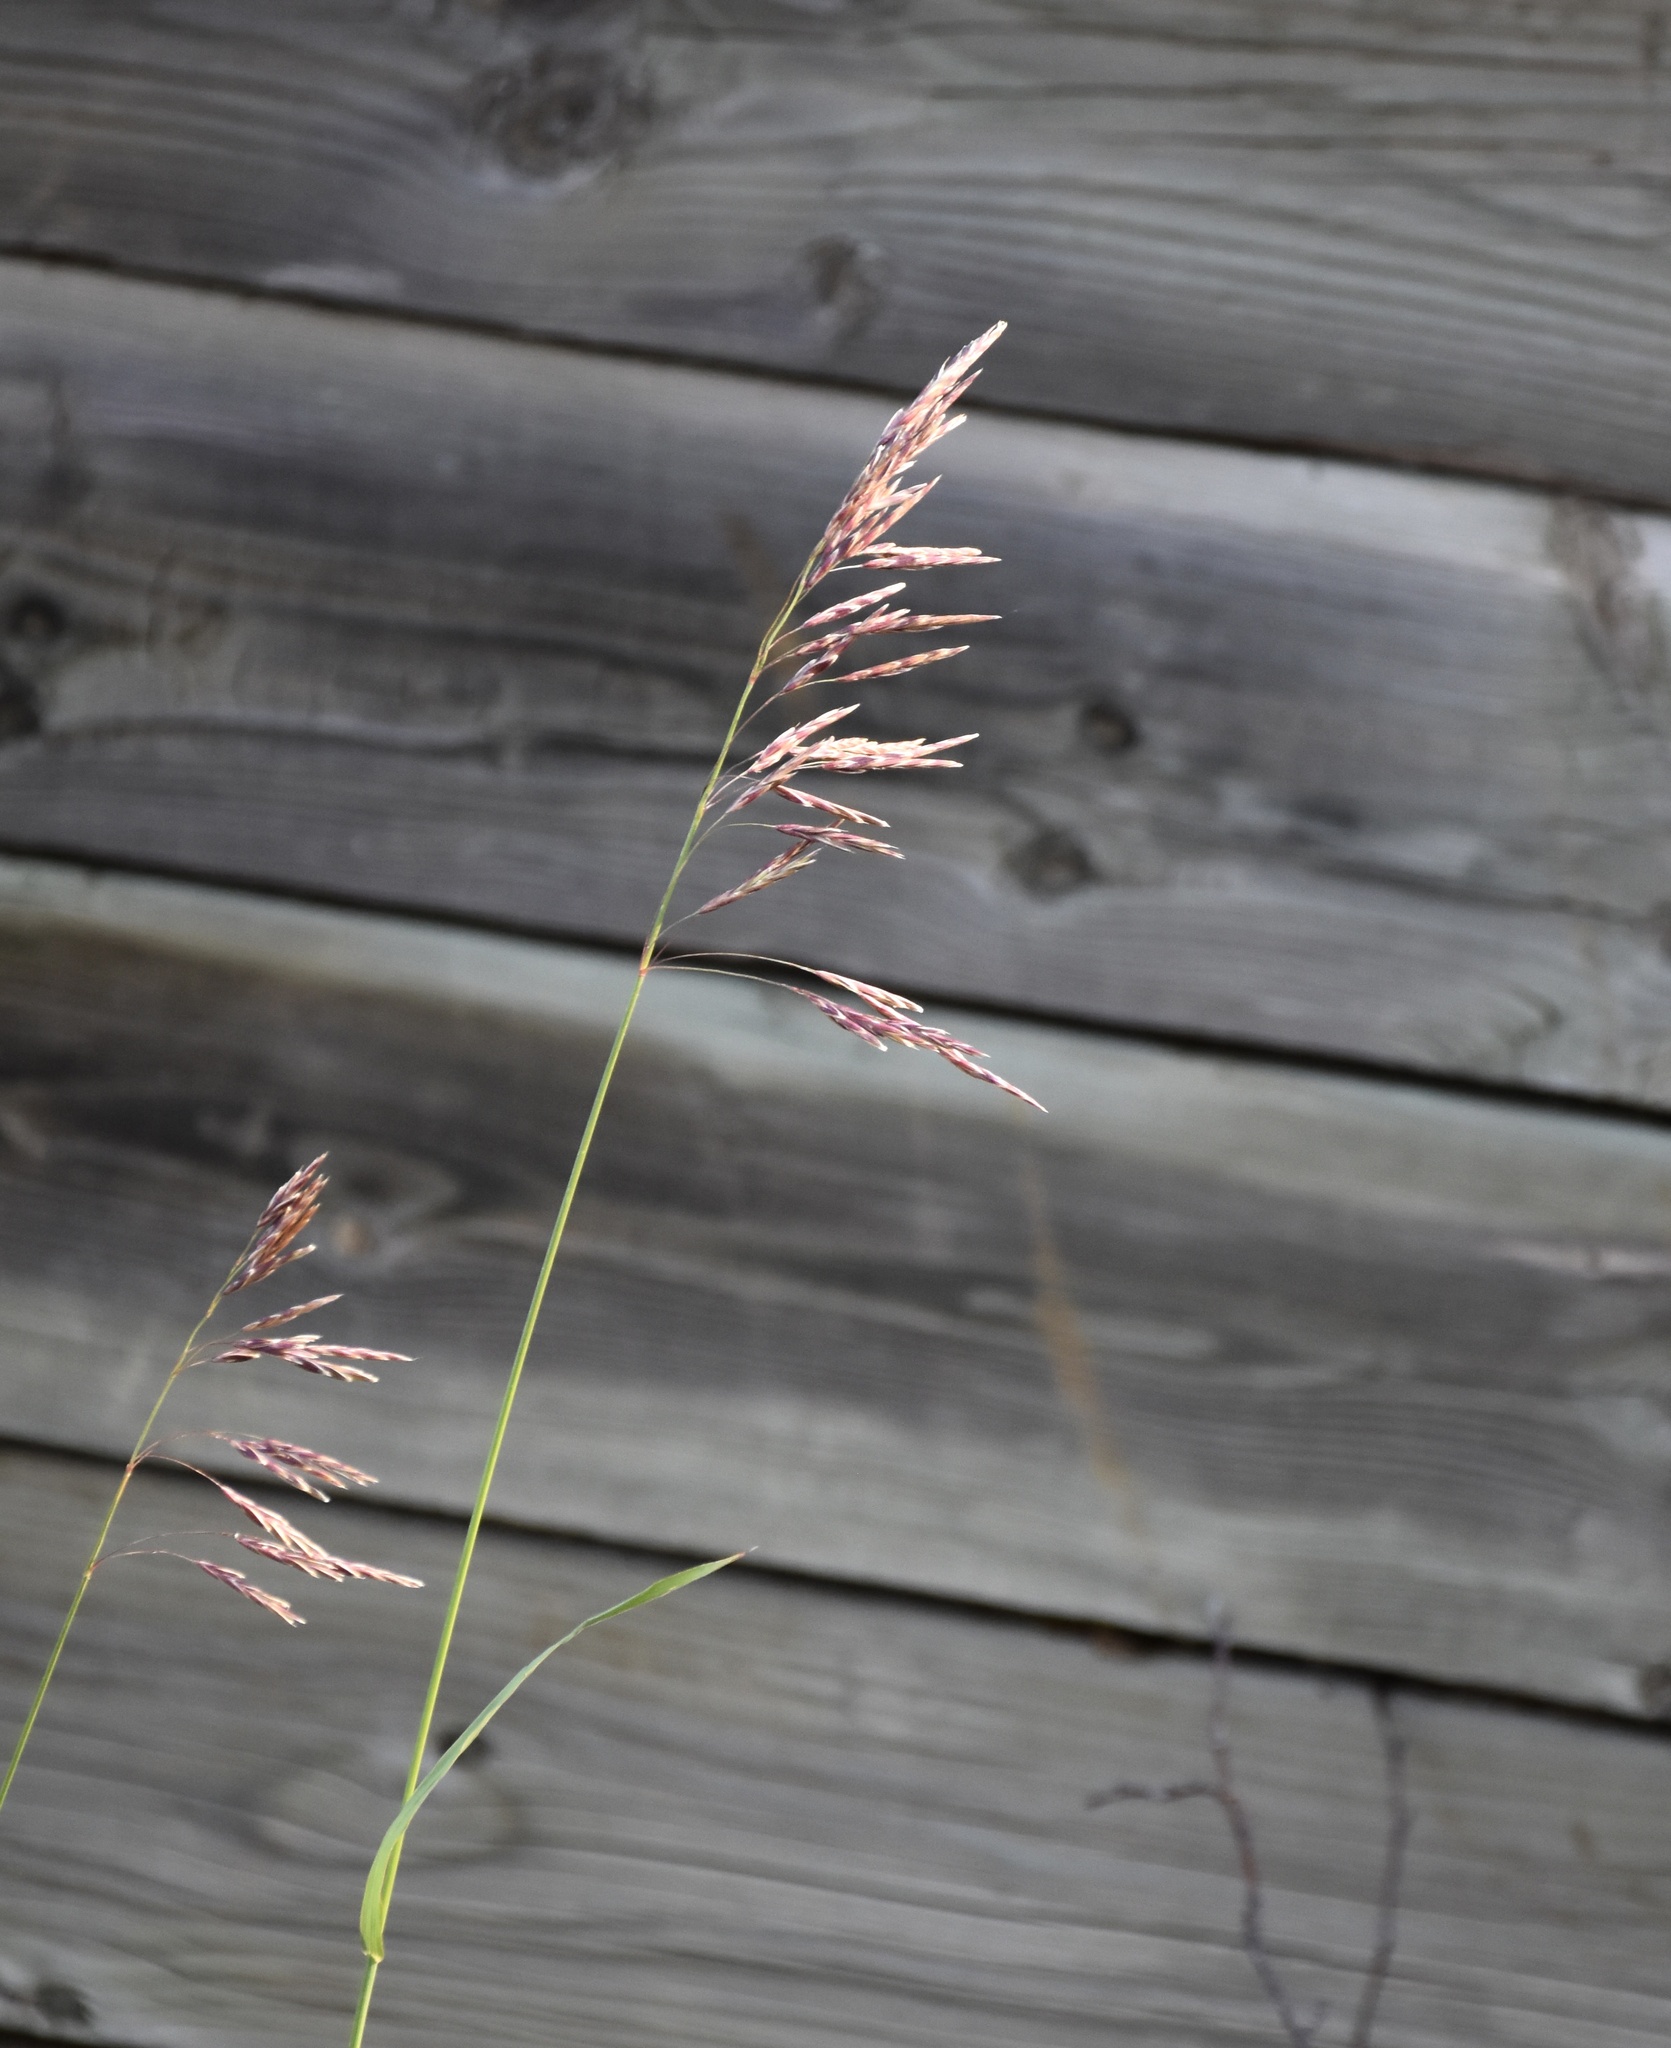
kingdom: Plantae
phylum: Tracheophyta
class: Liliopsida
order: Poales
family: Poaceae
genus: Bromus
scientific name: Bromus inermis
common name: Smooth brome
